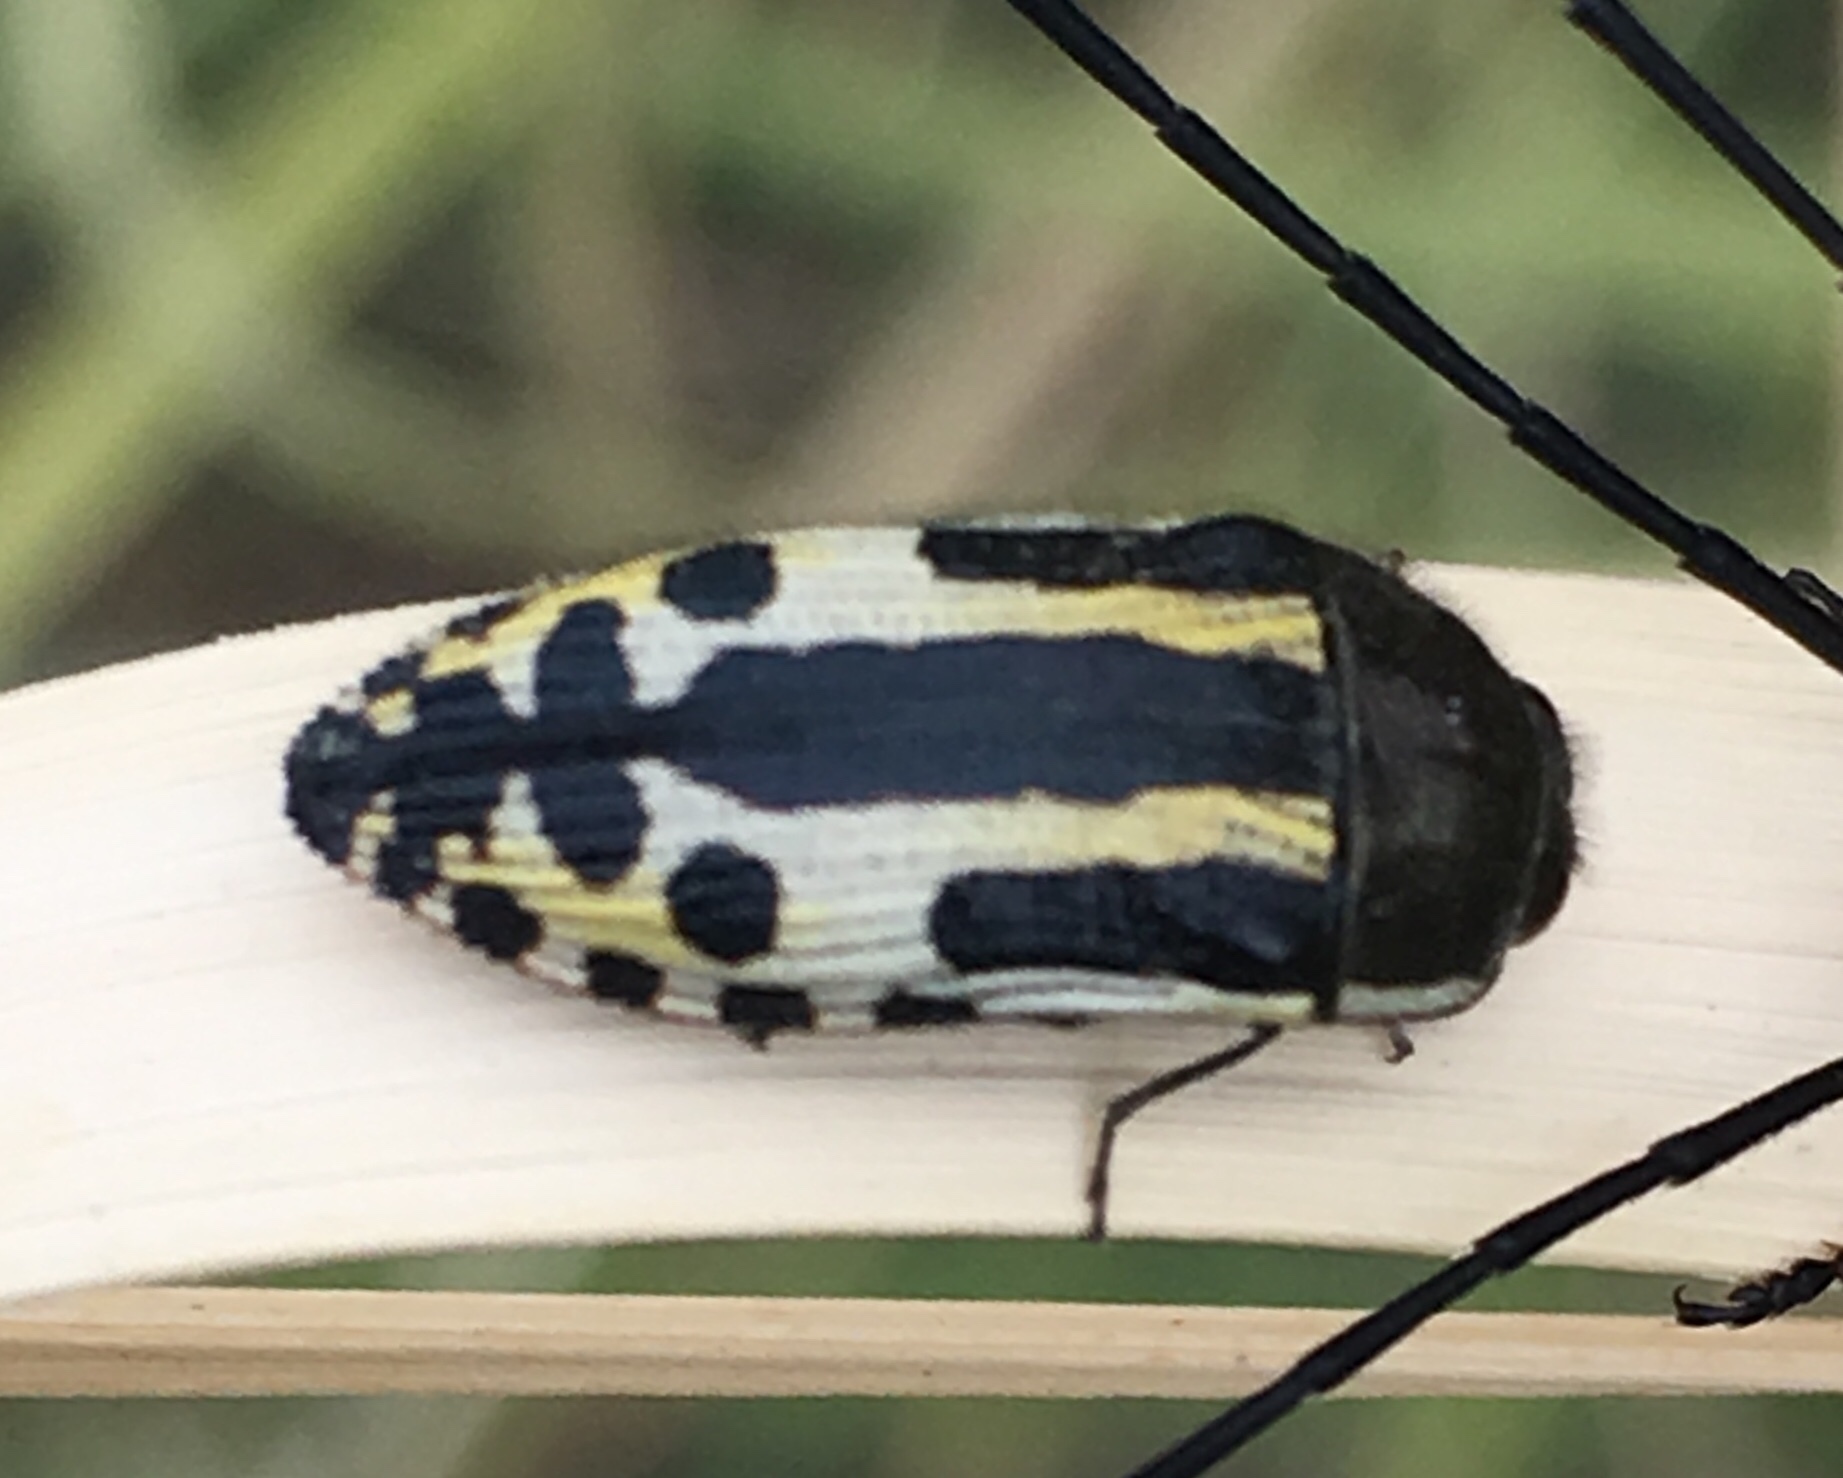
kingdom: Animalia
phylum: Arthropoda
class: Insecta
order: Coleoptera
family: Buprestidae
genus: Acmaeodera
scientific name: Acmaeodera scalaris
